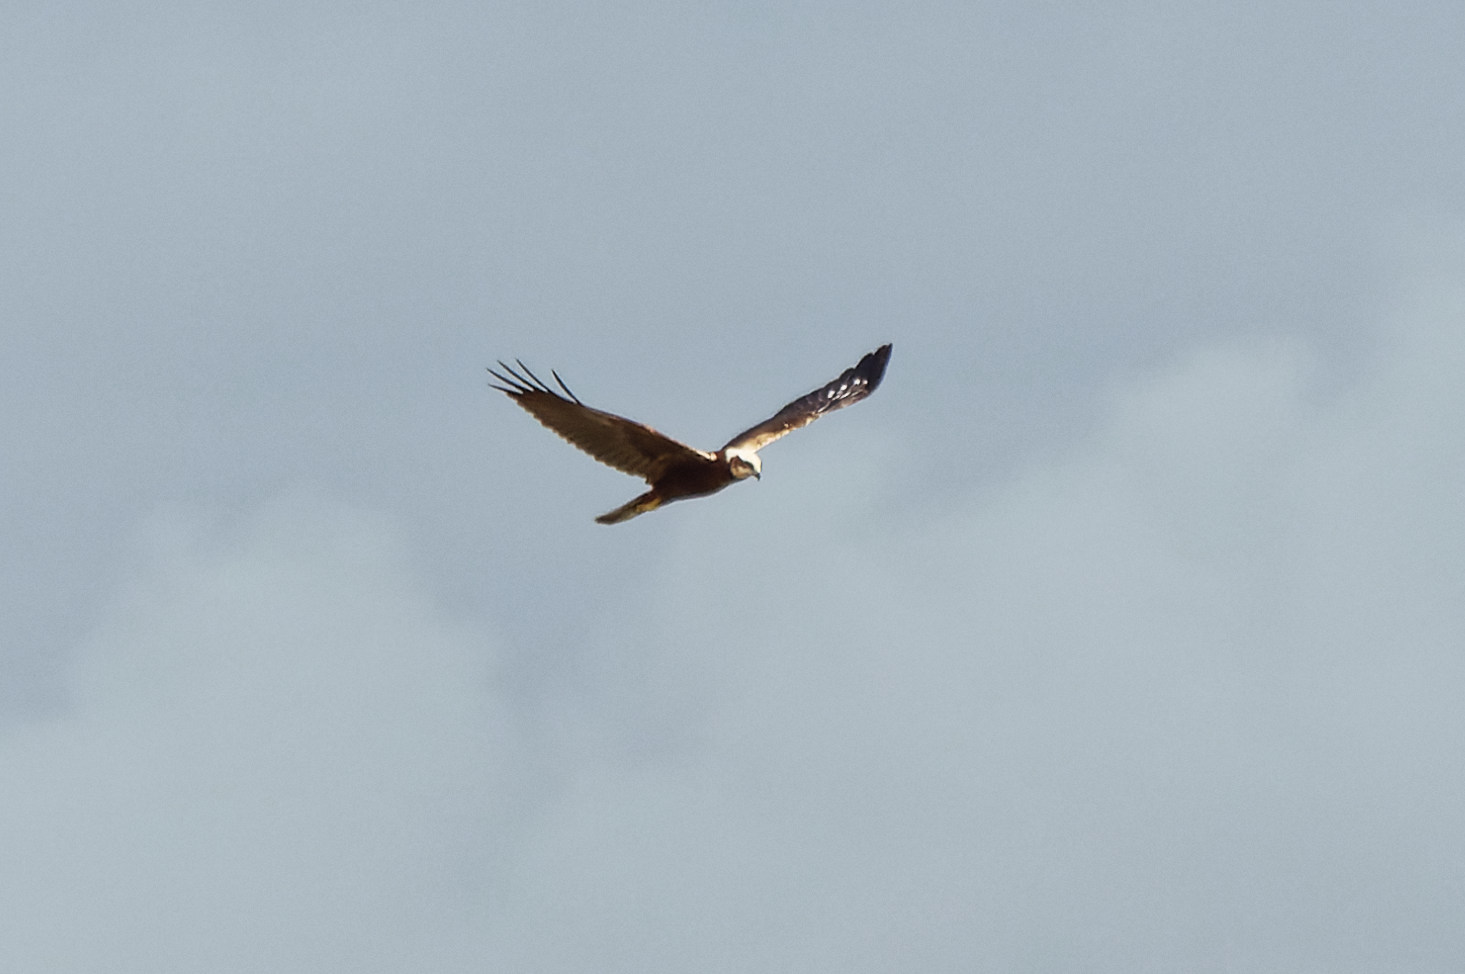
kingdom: Animalia
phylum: Chordata
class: Aves
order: Accipitriformes
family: Accipitridae
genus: Circus
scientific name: Circus aeruginosus
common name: Western marsh harrier
